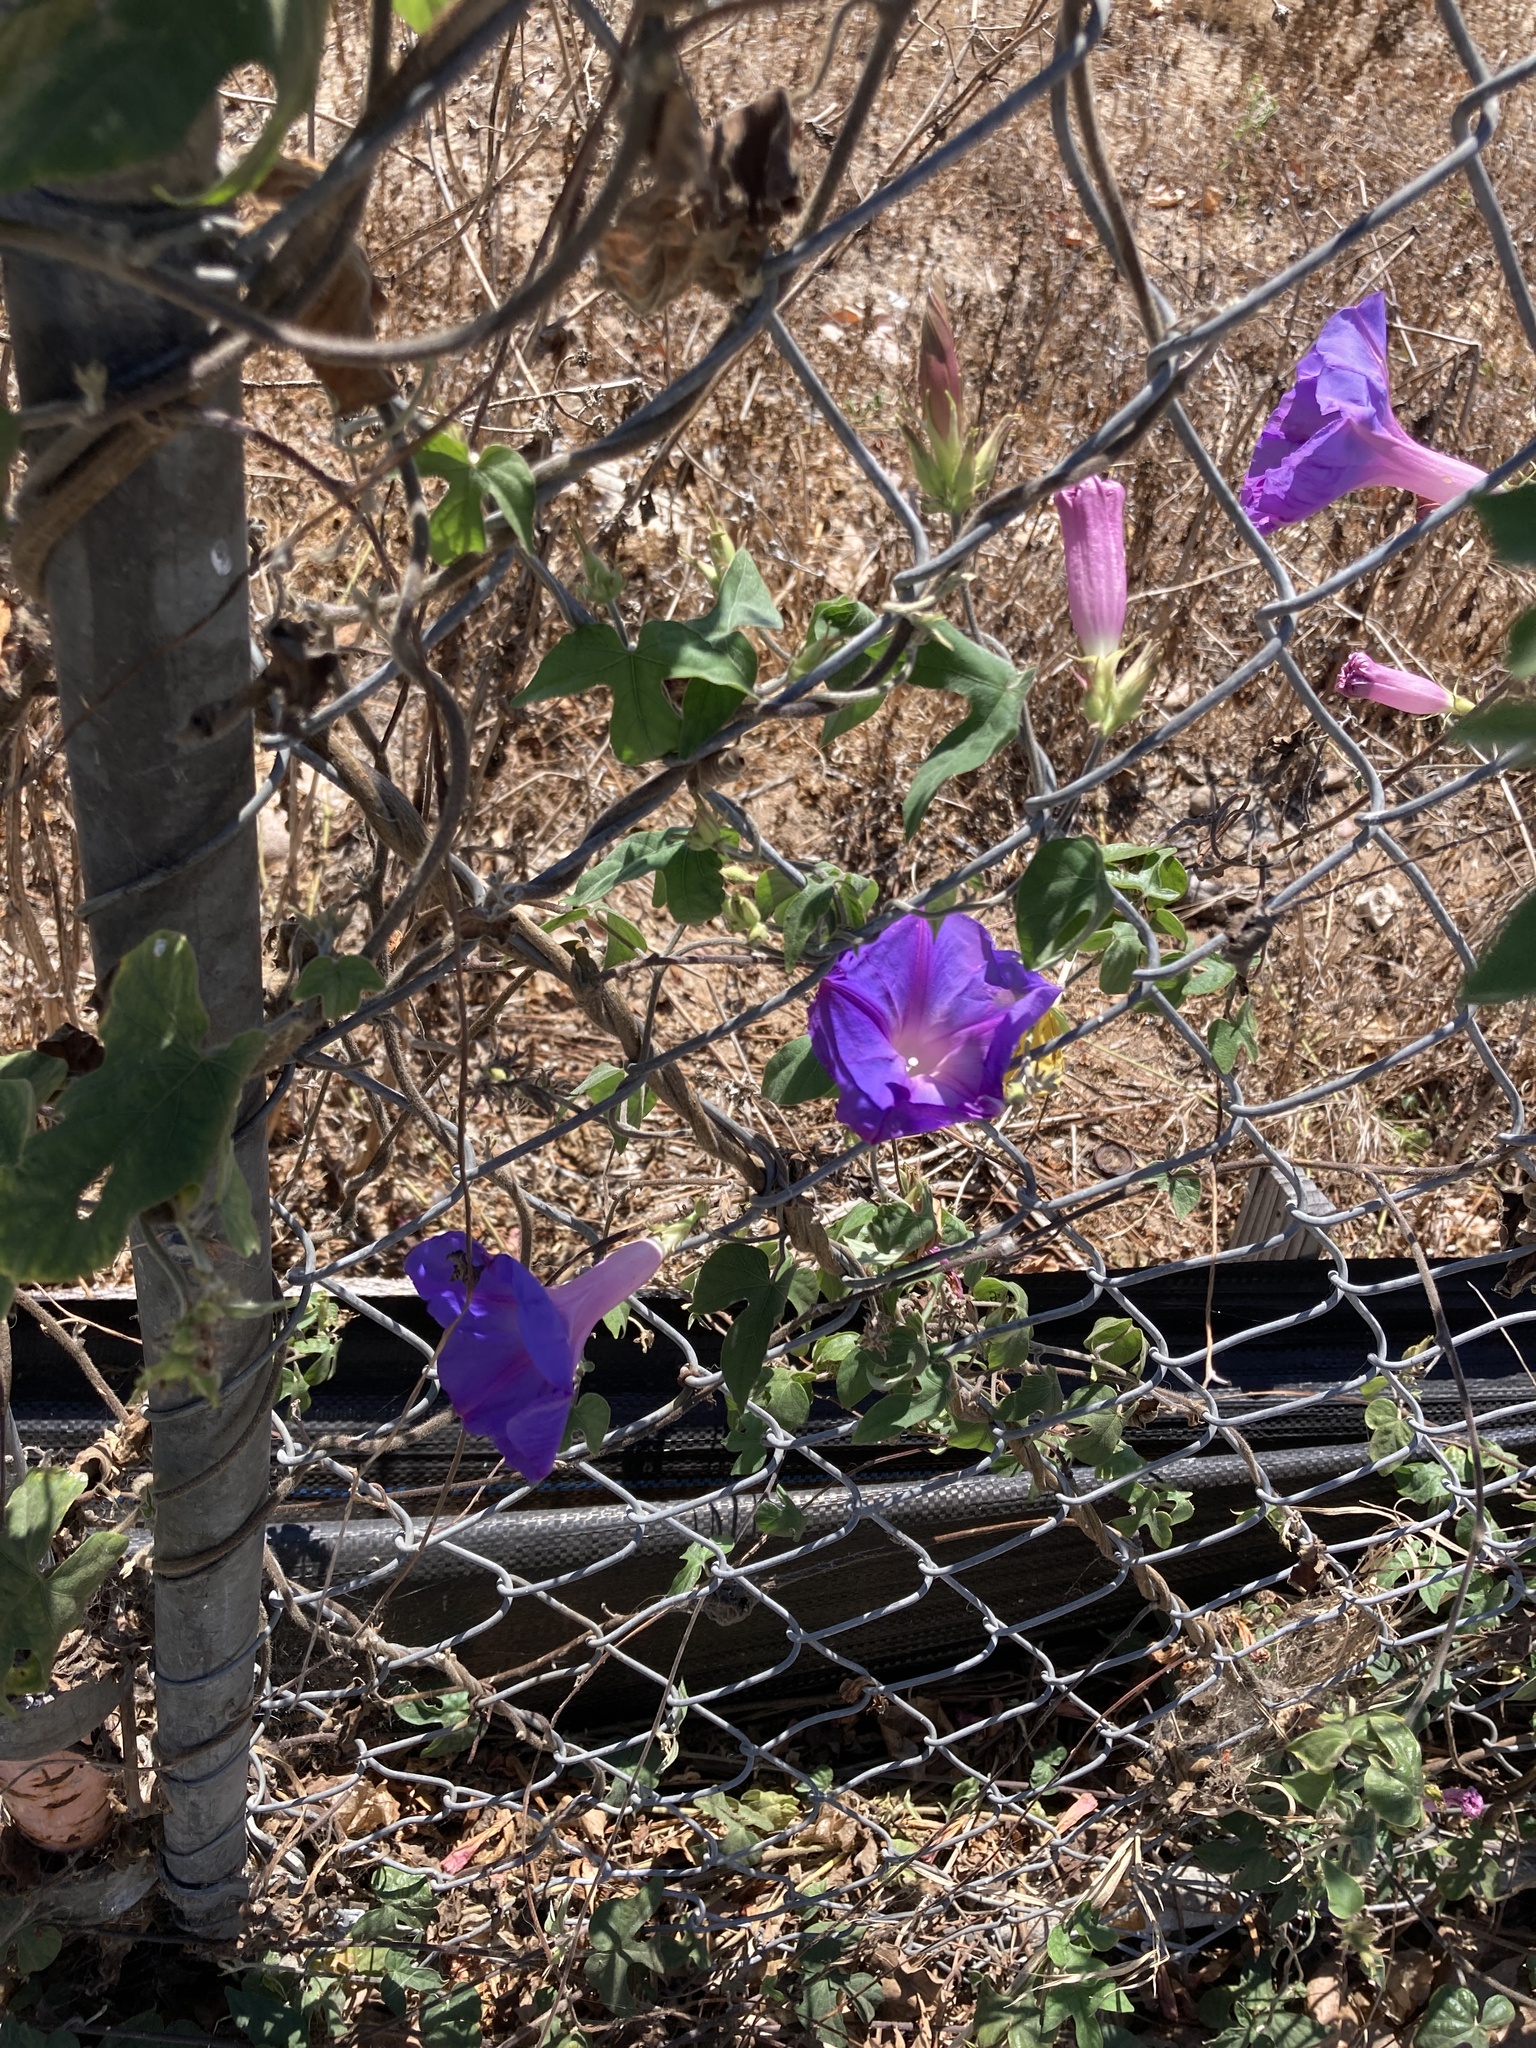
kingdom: Plantae
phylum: Tracheophyta
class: Magnoliopsida
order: Solanales
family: Convolvulaceae
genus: Ipomoea
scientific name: Ipomoea indica
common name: Blue dawnflower
